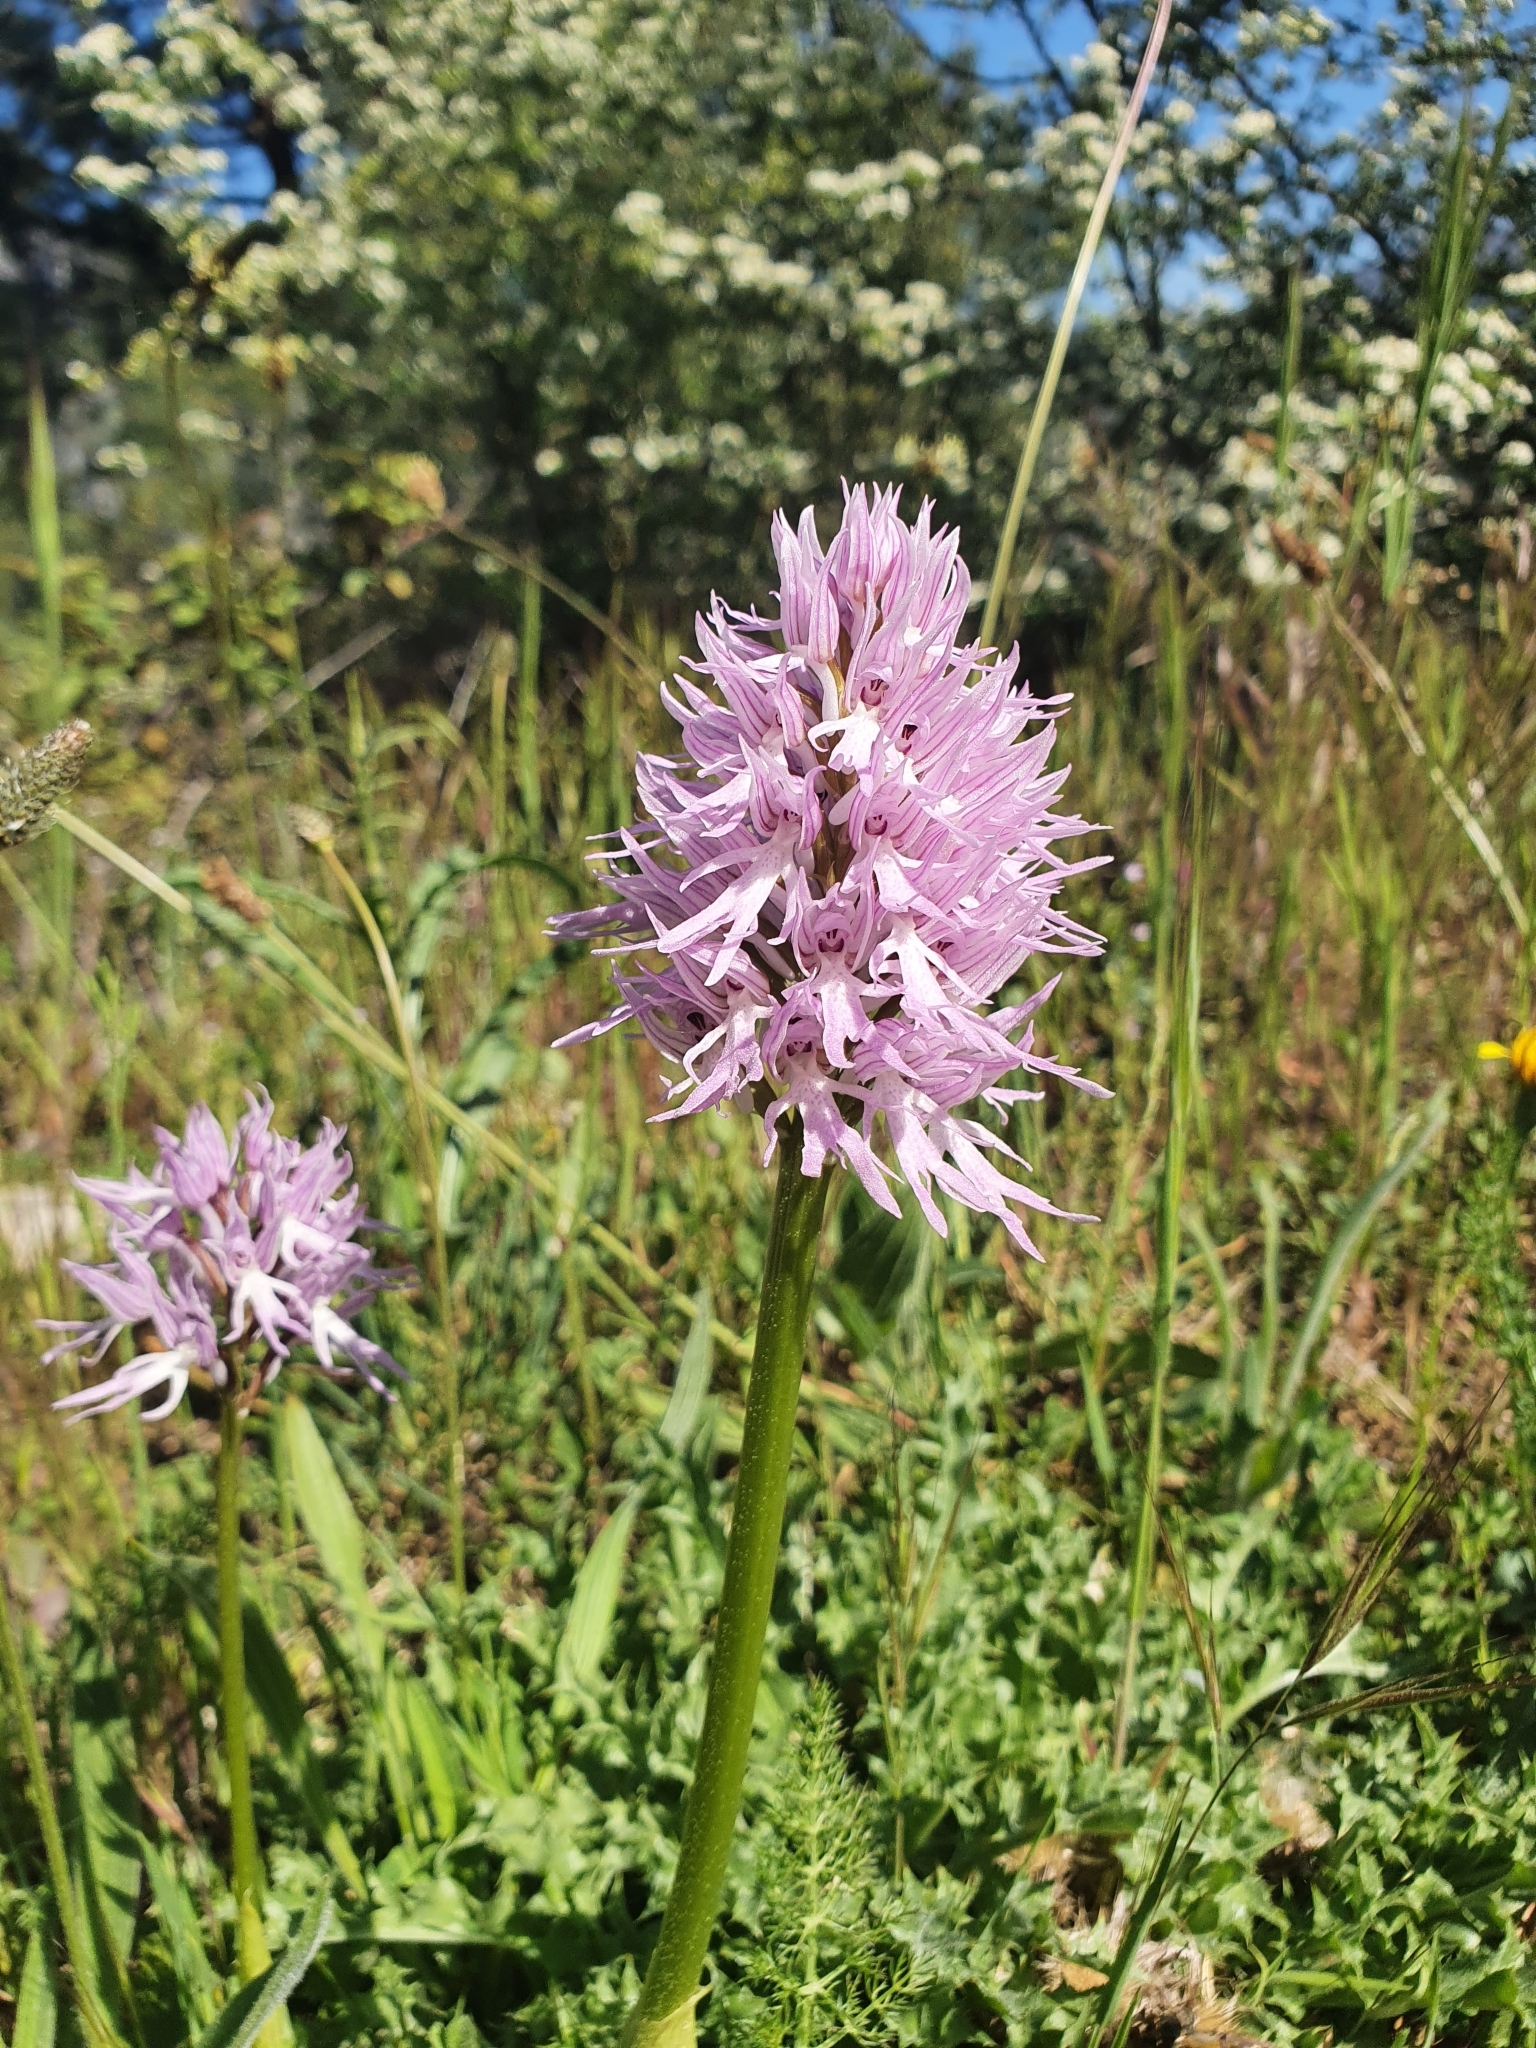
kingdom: Plantae
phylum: Tracheophyta
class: Liliopsida
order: Asparagales
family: Orchidaceae
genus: Orchis
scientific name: Orchis italica
